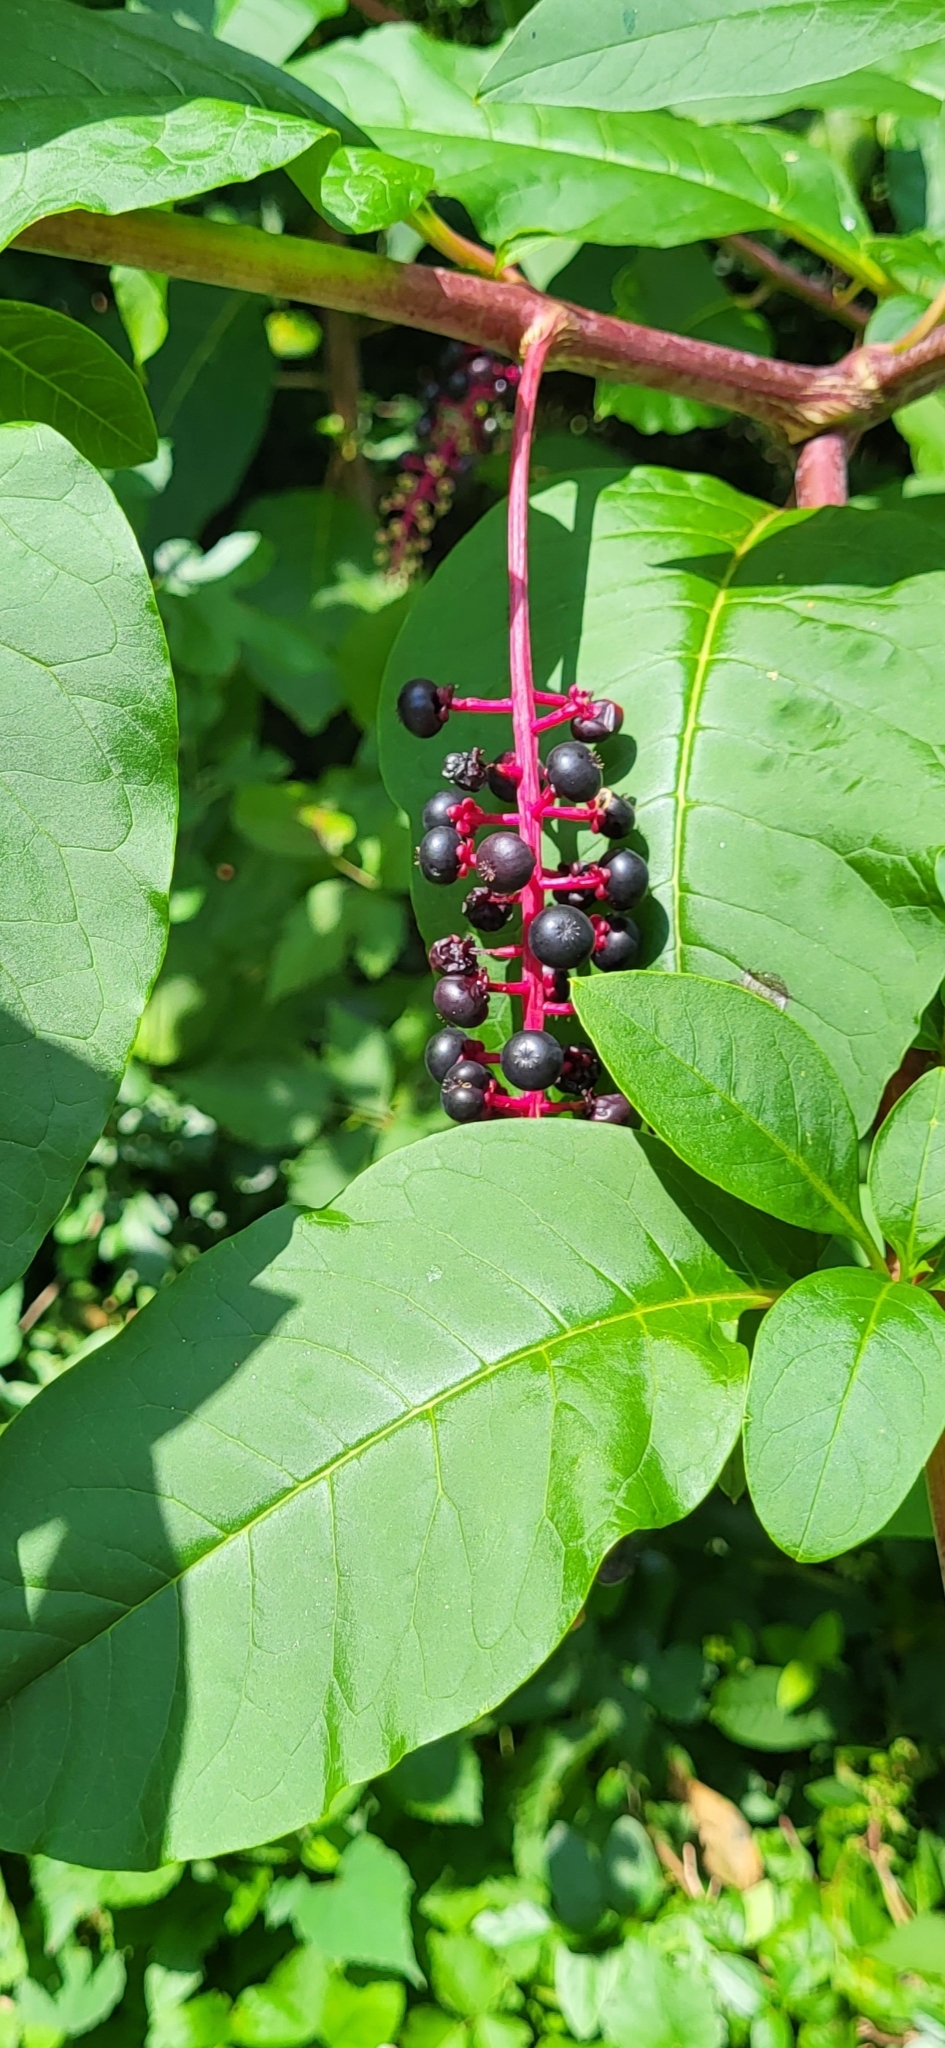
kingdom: Plantae
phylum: Tracheophyta
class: Magnoliopsida
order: Caryophyllales
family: Phytolaccaceae
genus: Phytolacca
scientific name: Phytolacca americana
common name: American pokeweed
